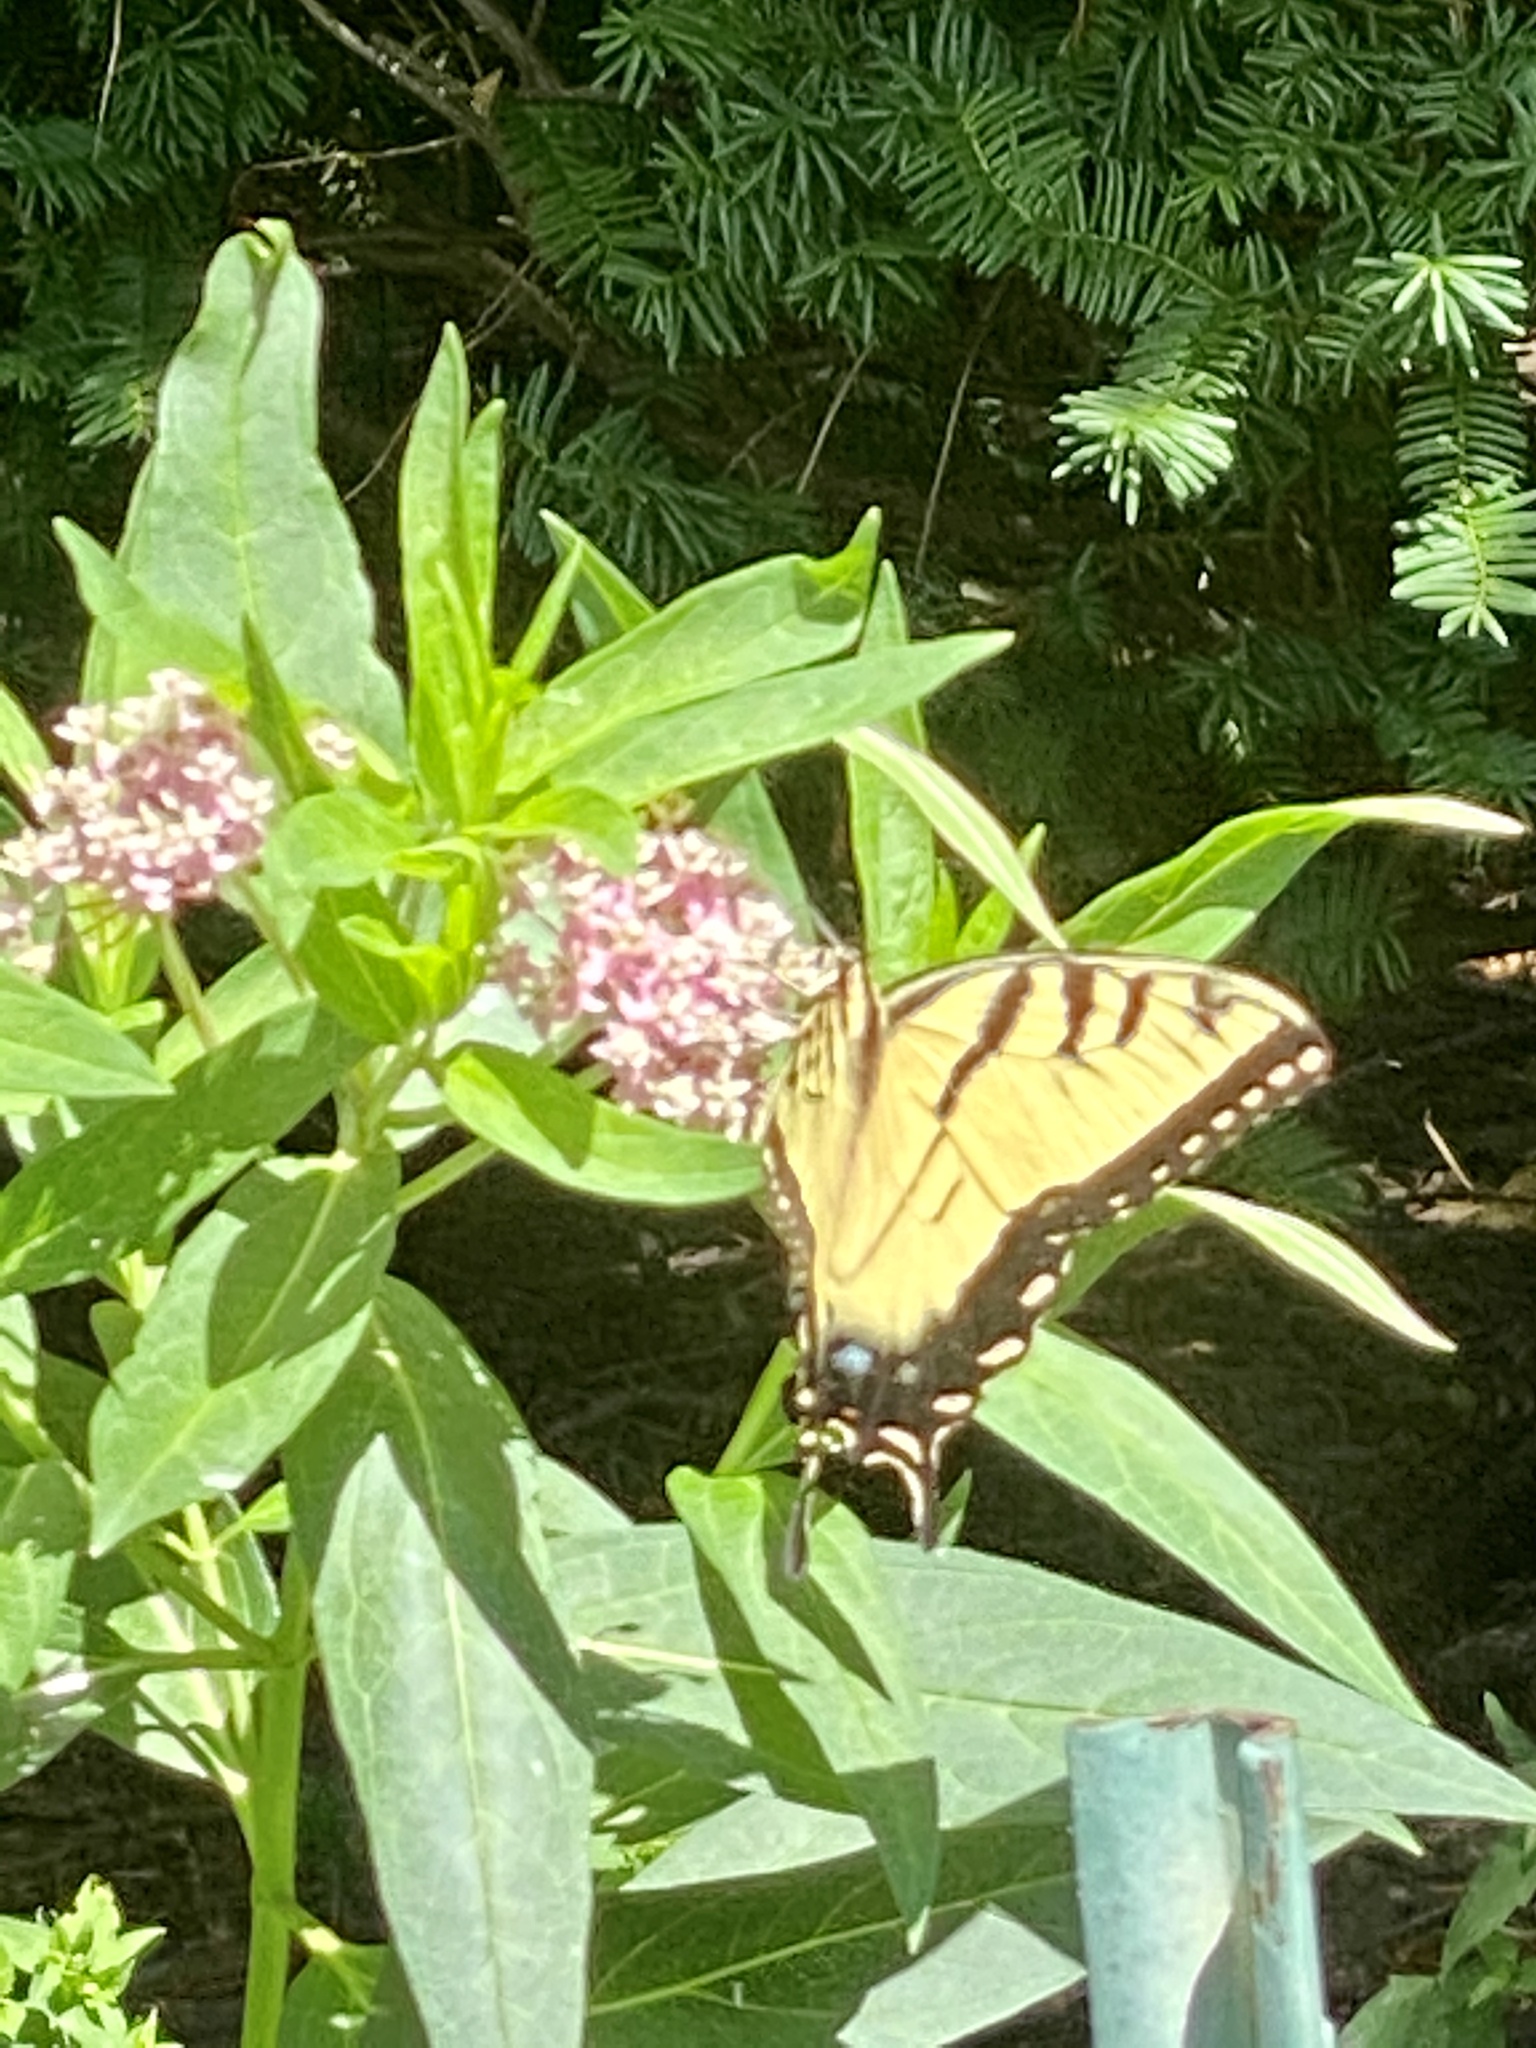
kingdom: Animalia
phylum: Arthropoda
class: Insecta
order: Lepidoptera
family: Papilionidae
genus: Papilio
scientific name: Papilio glaucus
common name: Tiger swallowtail
